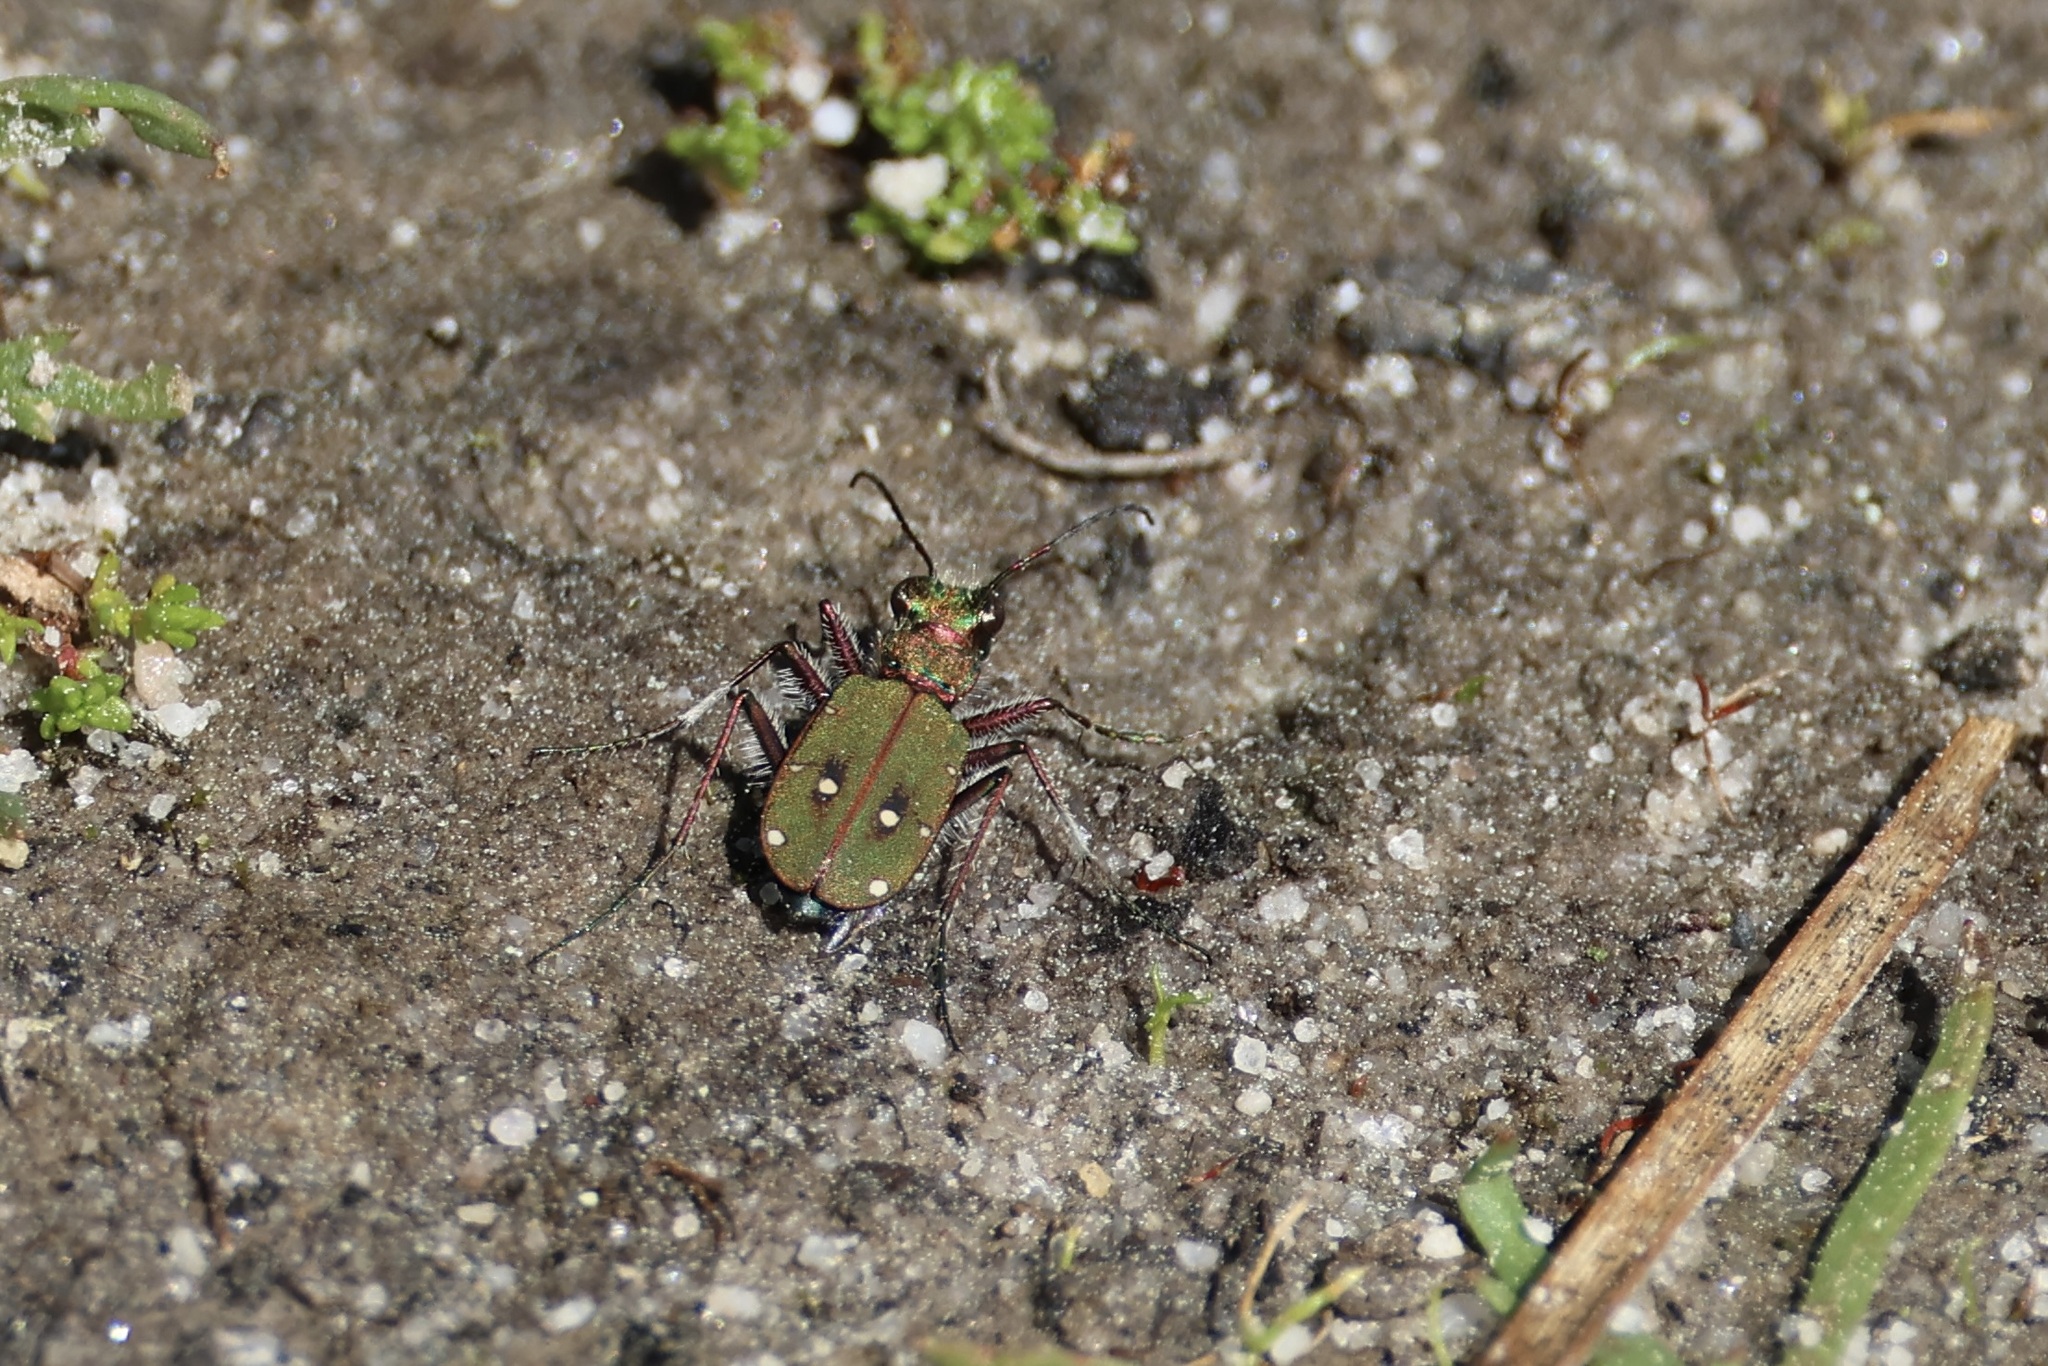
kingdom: Animalia
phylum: Arthropoda
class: Insecta
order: Coleoptera
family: Carabidae
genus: Cicindela
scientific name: Cicindela campestris
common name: Common tiger beetle
